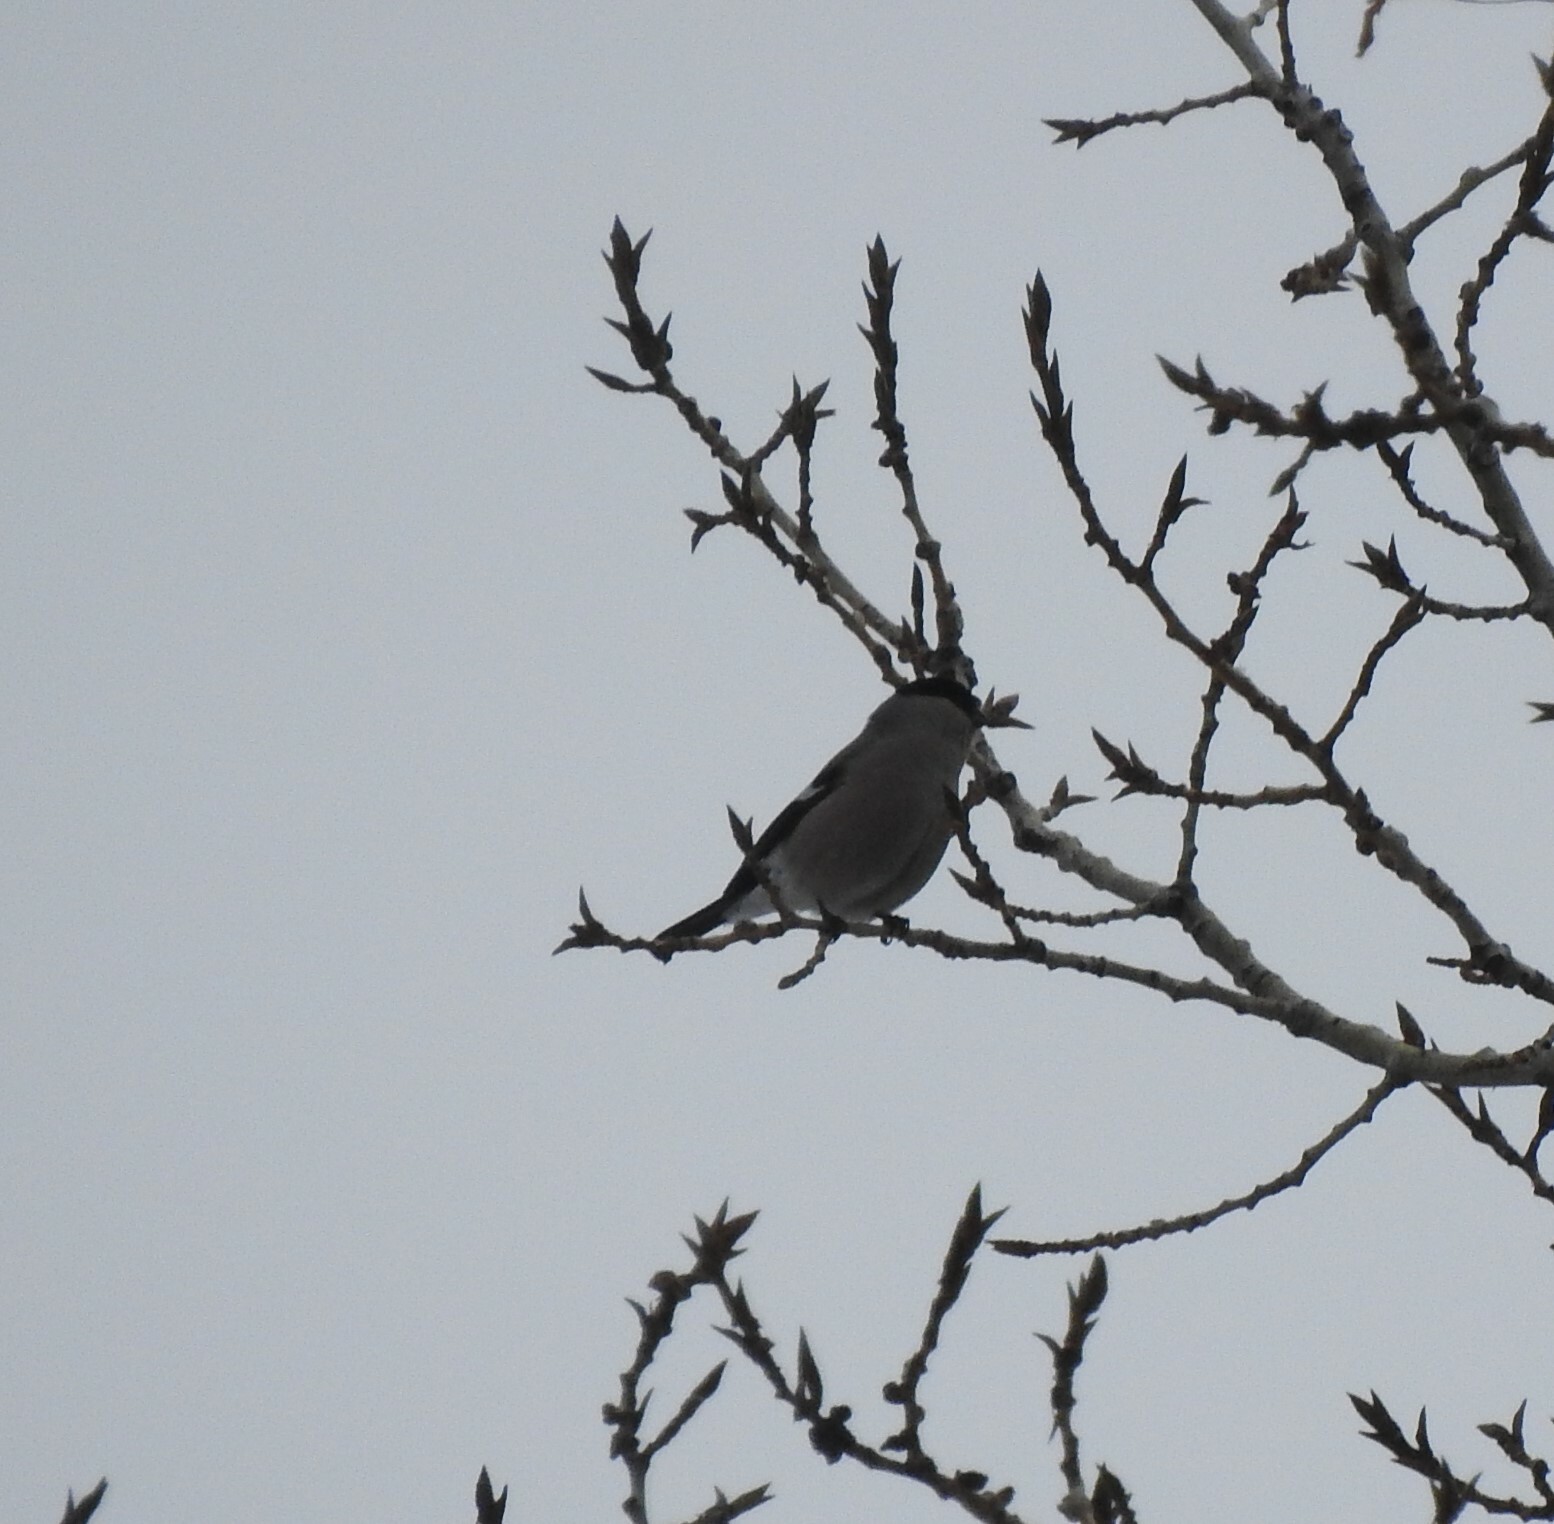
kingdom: Animalia
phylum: Chordata
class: Aves
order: Passeriformes
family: Fringillidae
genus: Pyrrhula
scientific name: Pyrrhula pyrrhula
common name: Eurasian bullfinch
